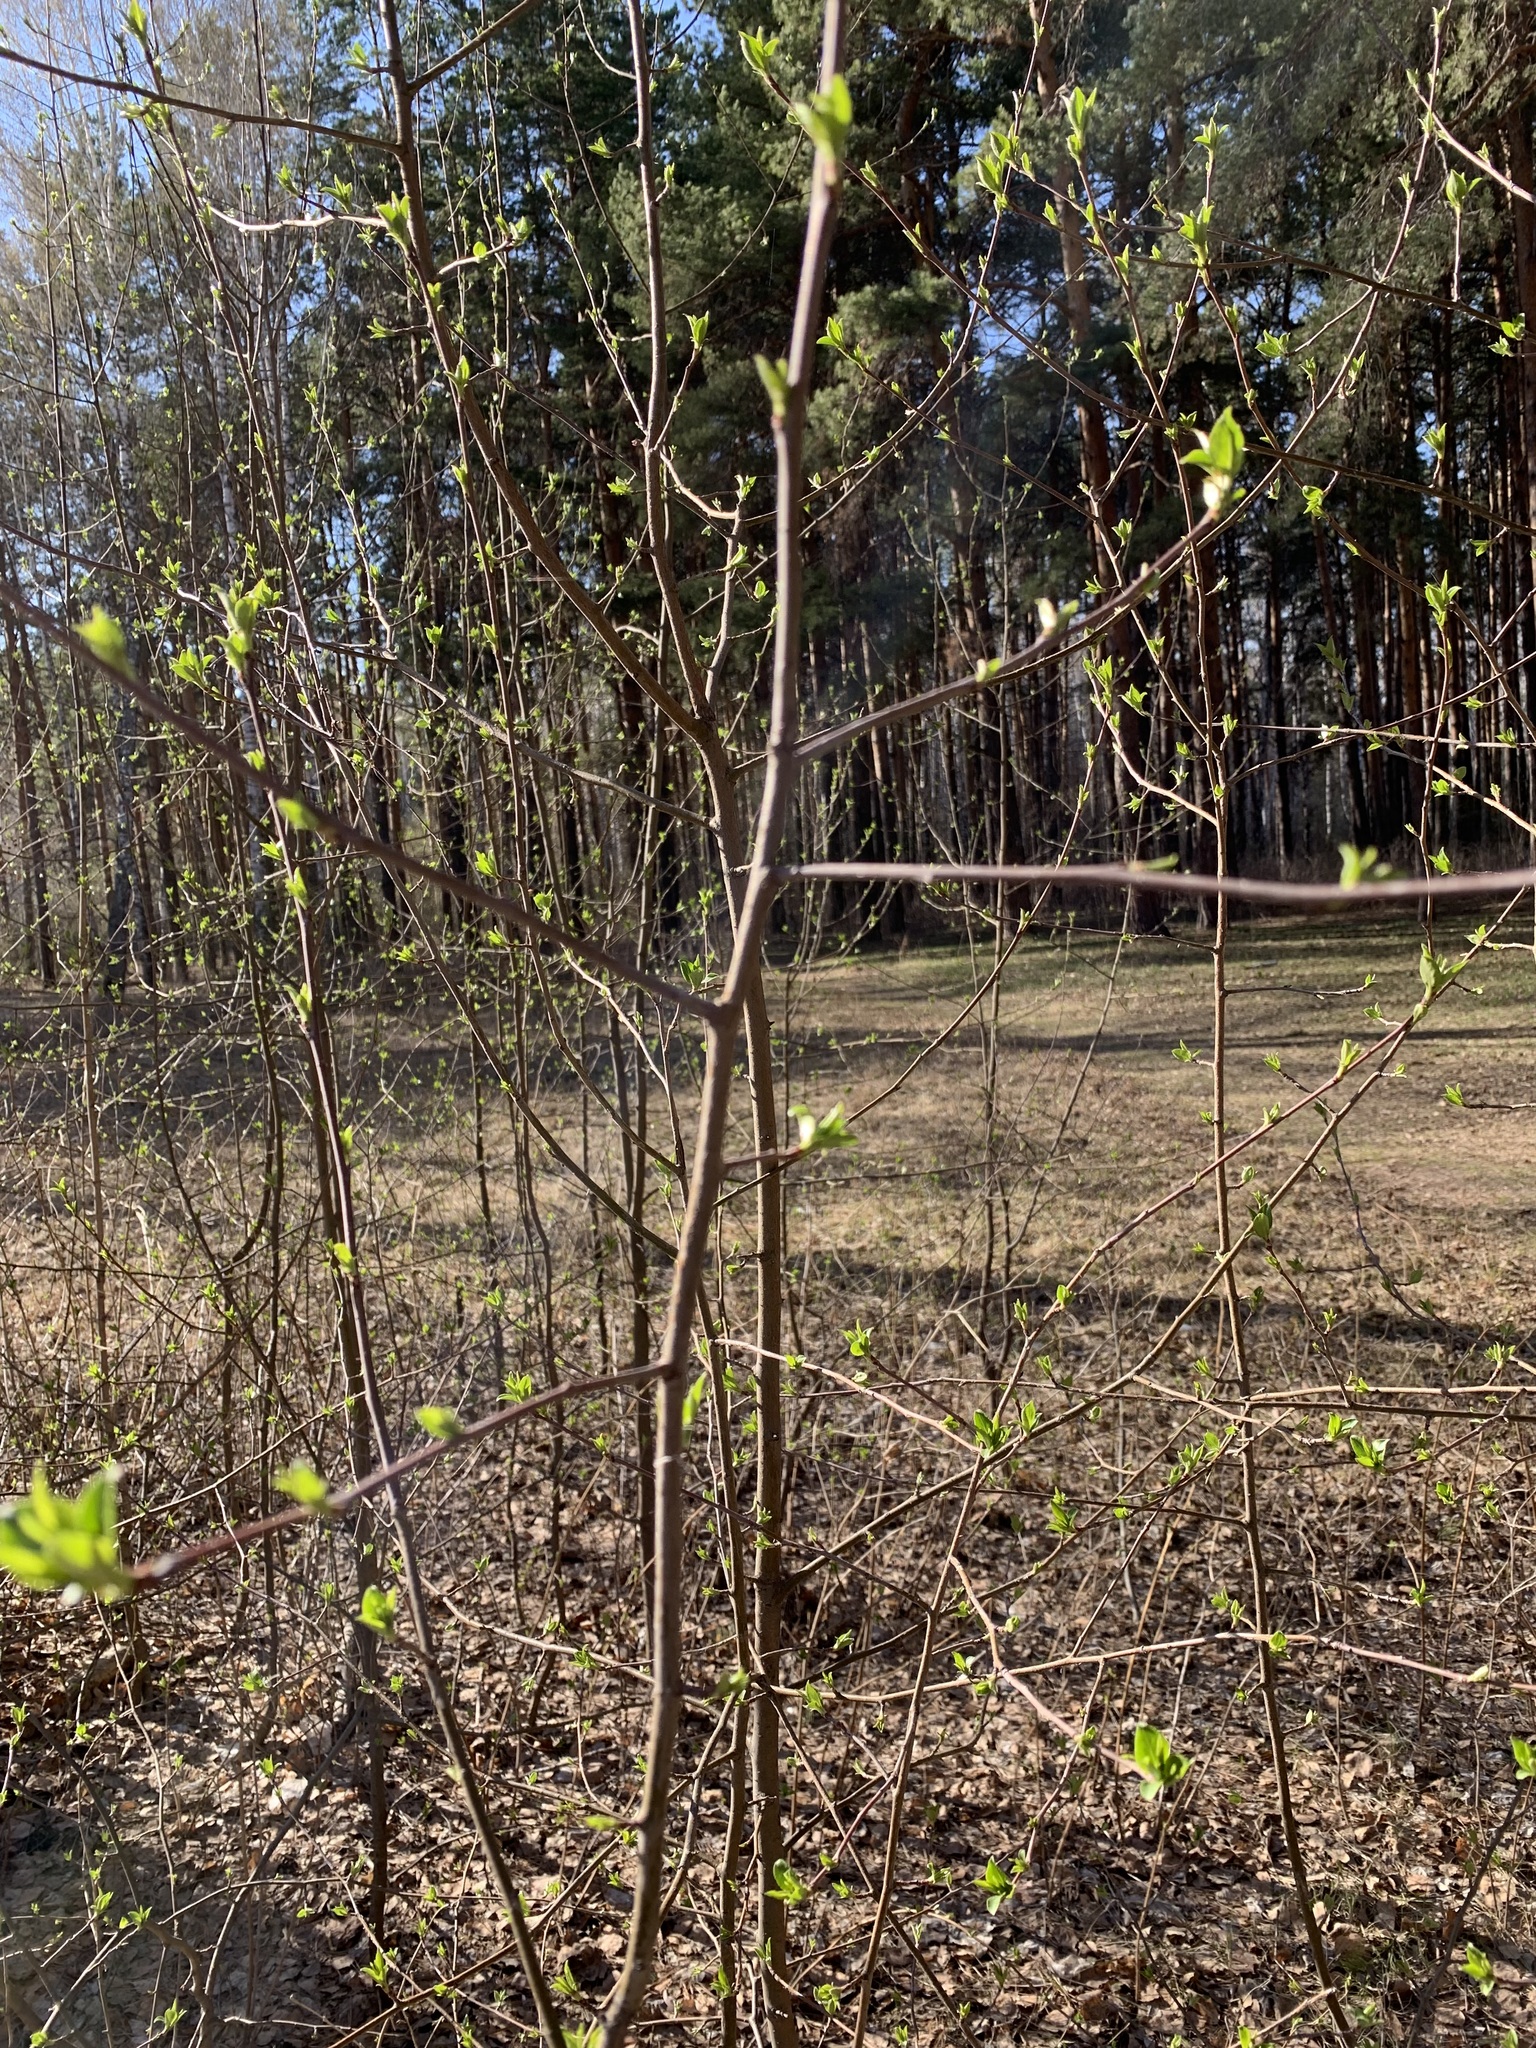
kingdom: Plantae
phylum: Tracheophyta
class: Magnoliopsida
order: Rosales
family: Rosaceae
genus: Malus
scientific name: Malus baccata
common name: Siberian crab
